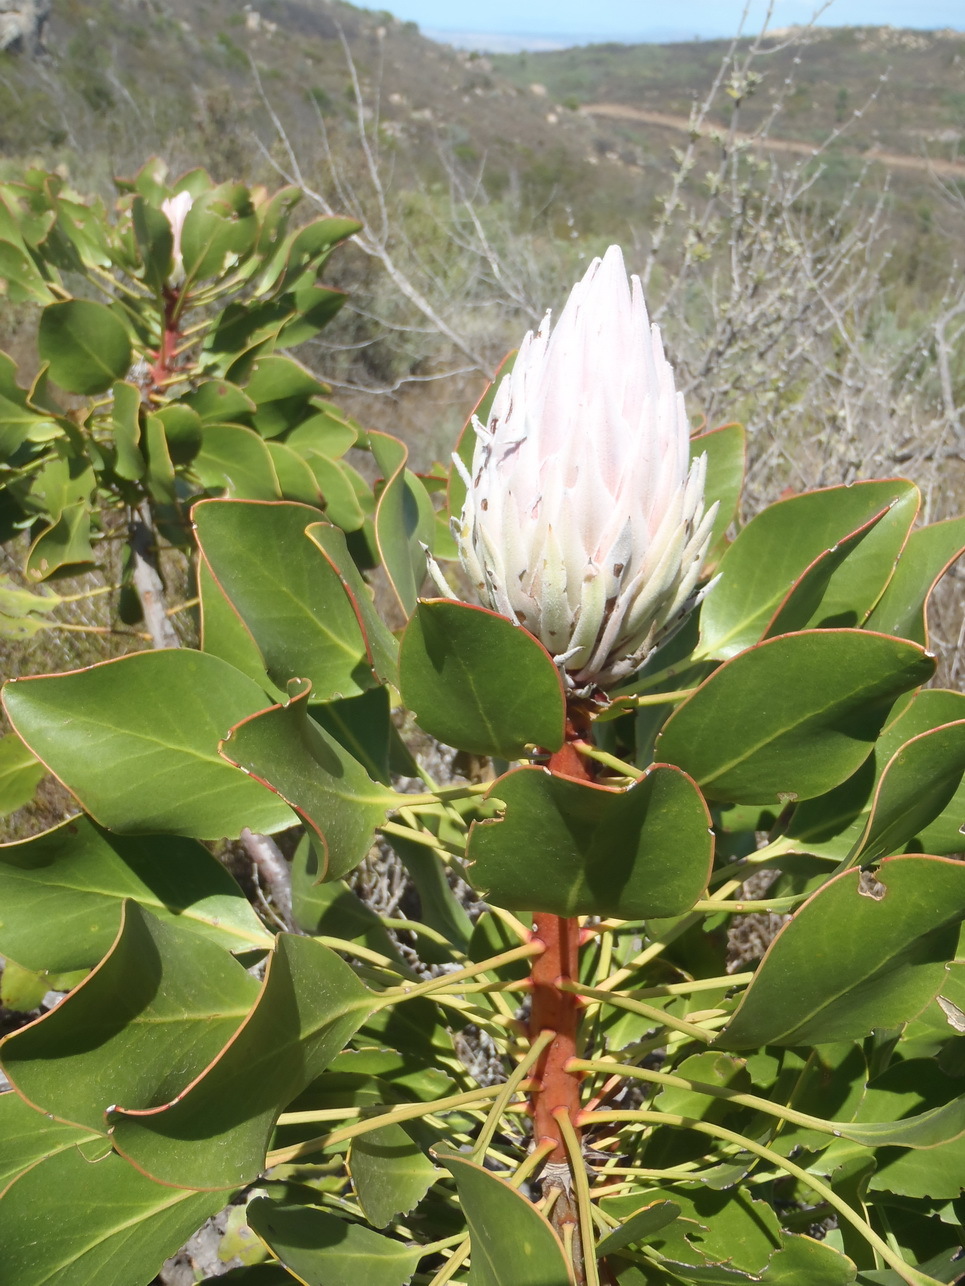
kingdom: Plantae
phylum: Tracheophyta
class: Magnoliopsida
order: Proteales
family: Proteaceae
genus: Protea
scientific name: Protea cynaroides
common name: King protea
